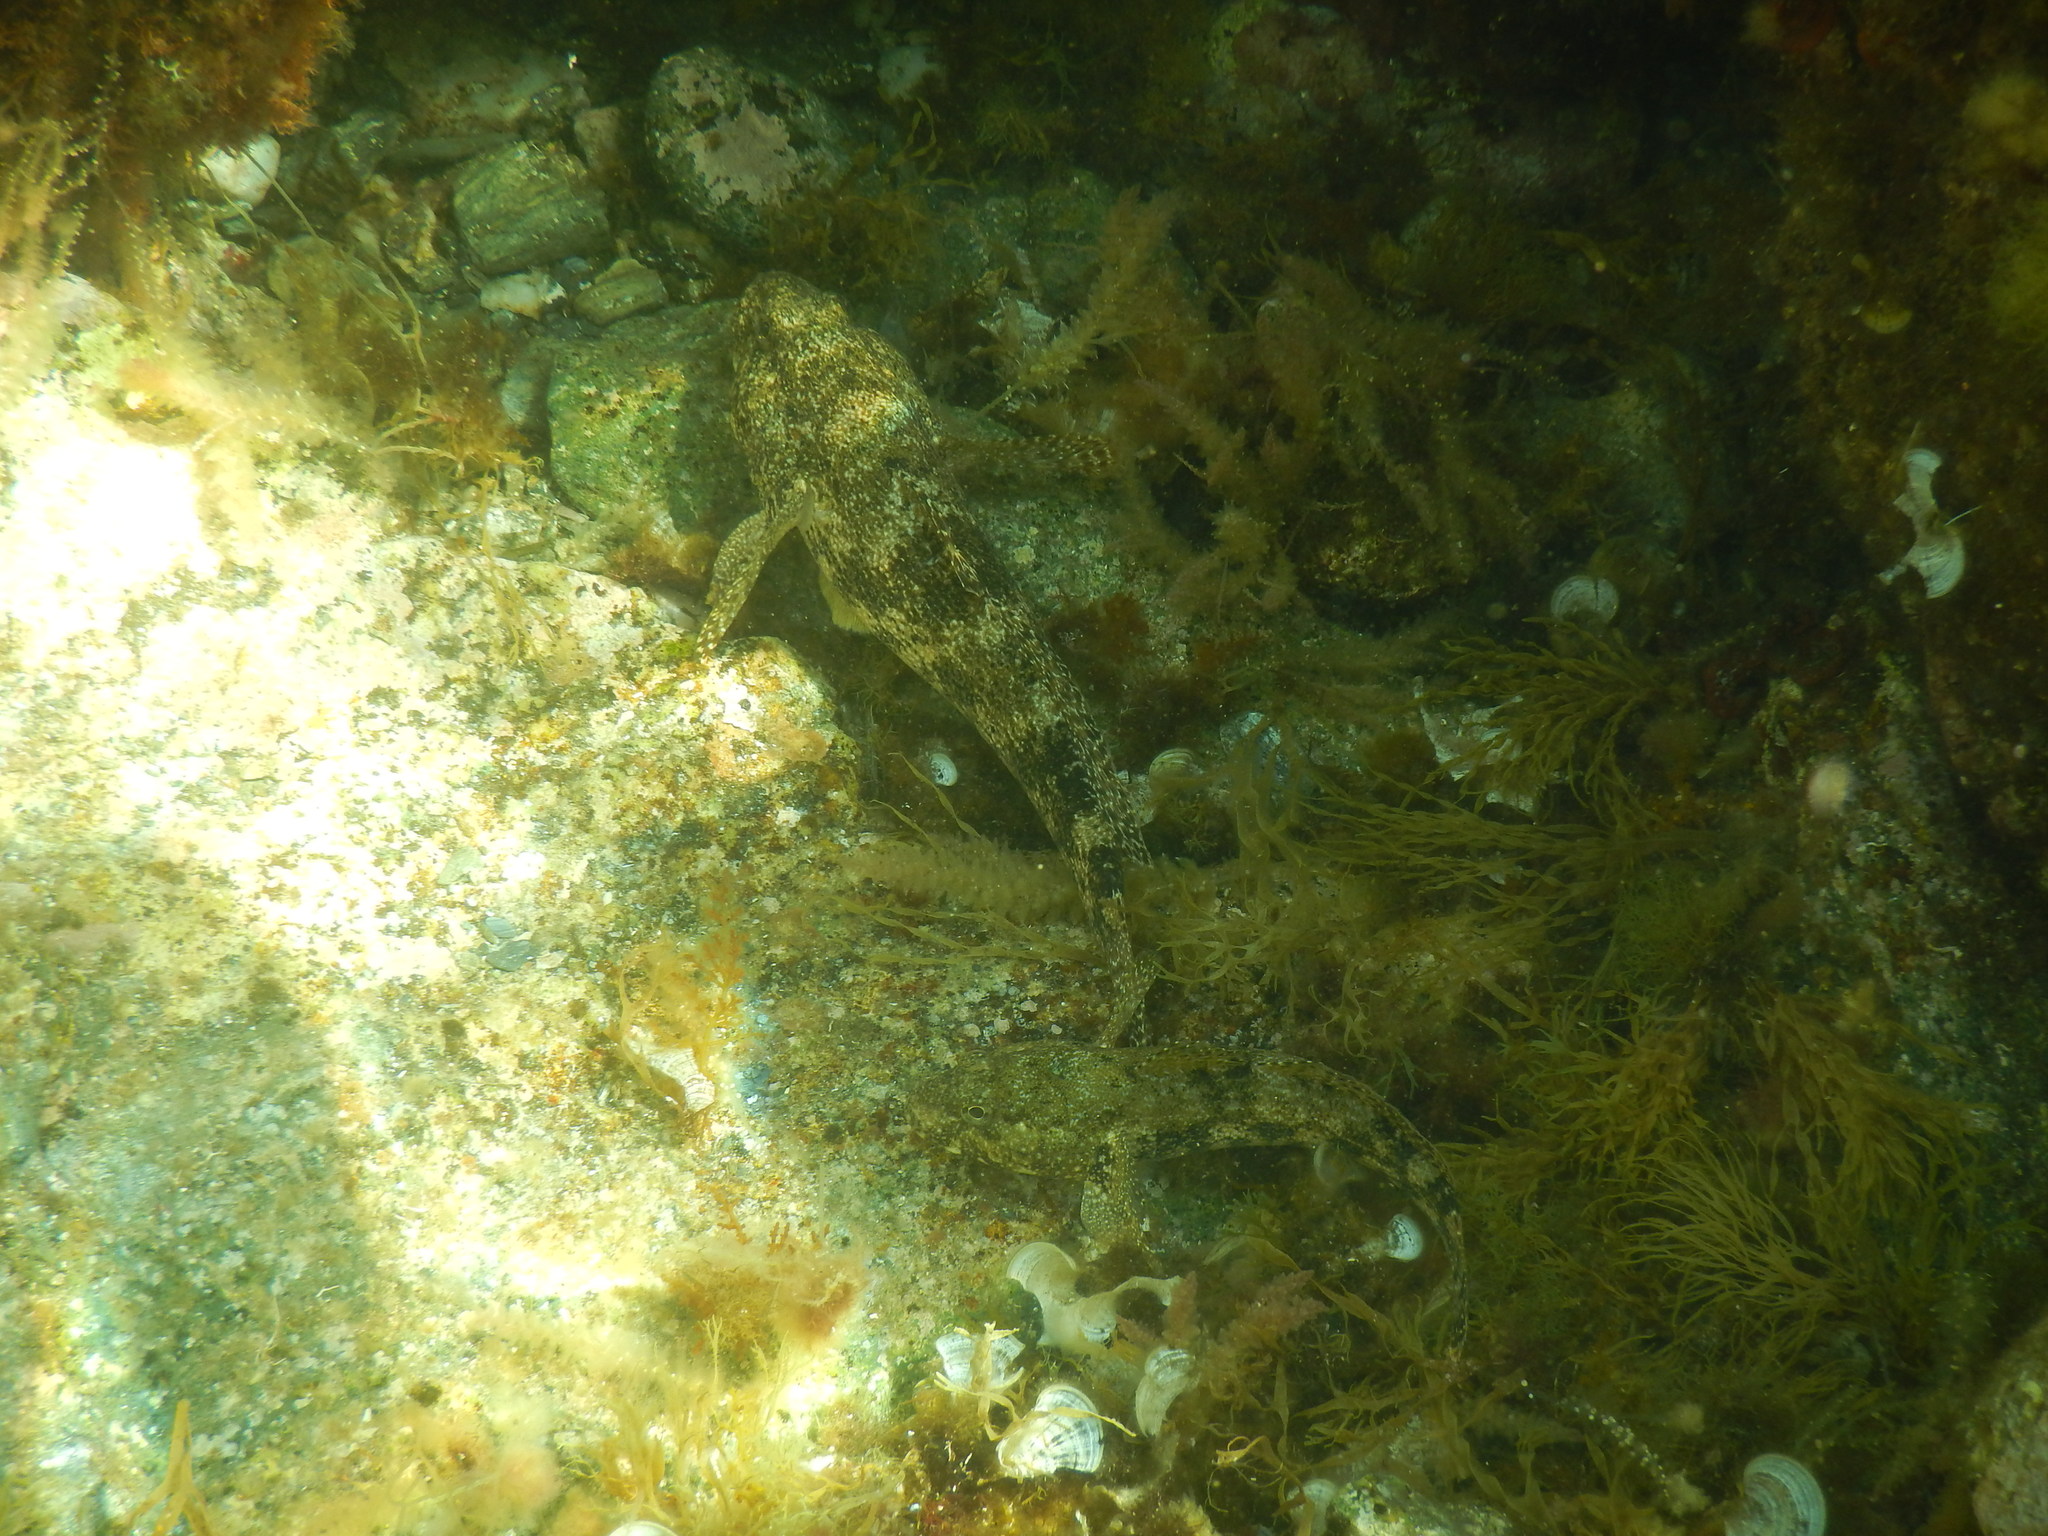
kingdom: Animalia
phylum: Chordata
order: Perciformes
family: Gobiidae
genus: Gobius
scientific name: Gobius cobitis
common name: Giant goby
